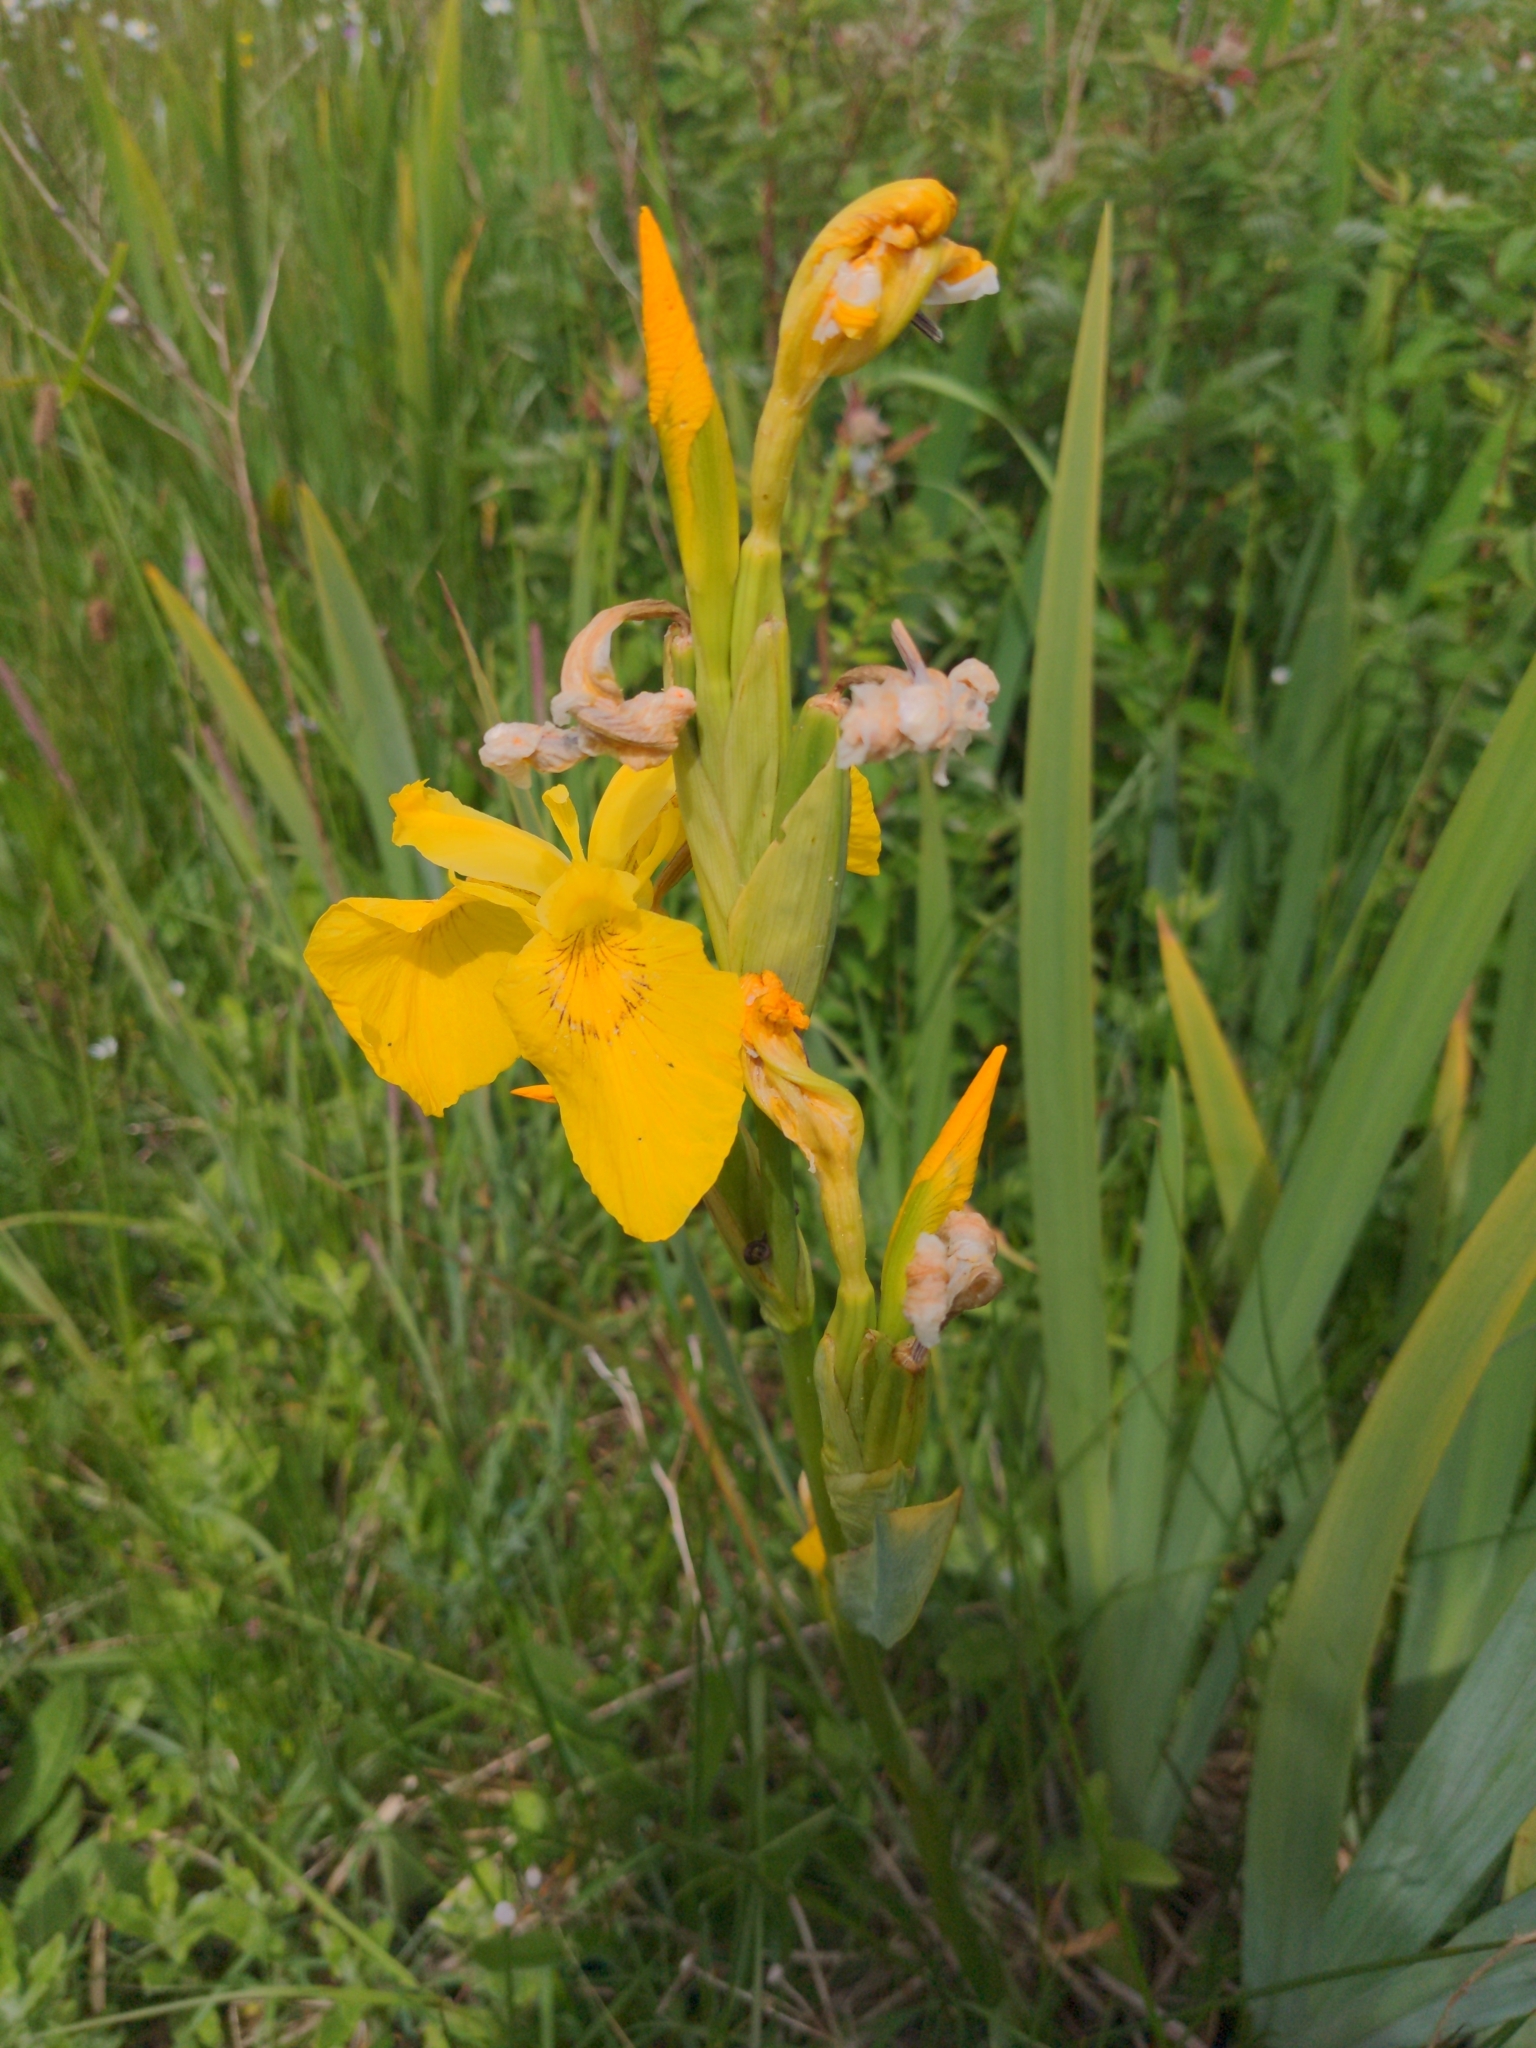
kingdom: Plantae
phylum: Tracheophyta
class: Liliopsida
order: Asparagales
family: Iridaceae
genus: Iris
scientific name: Iris pseudacorus
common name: Yellow flag
